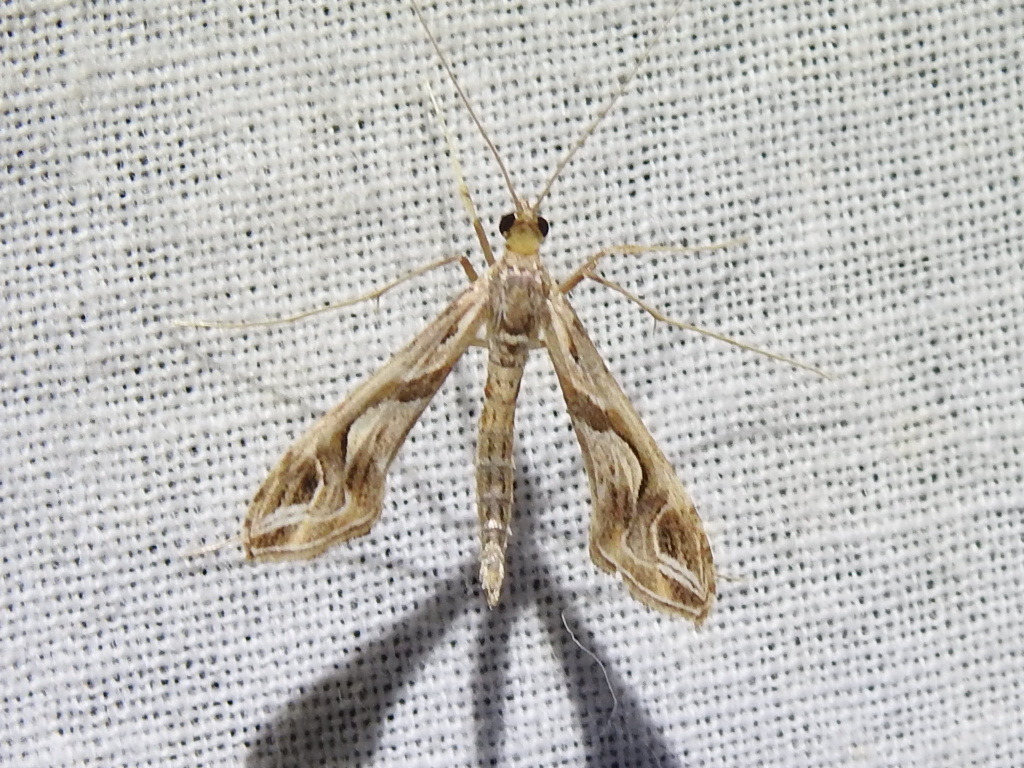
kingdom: Animalia
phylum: Arthropoda
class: Insecta
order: Lepidoptera
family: Crambidae
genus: Lineodes
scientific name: Lineodes integra
